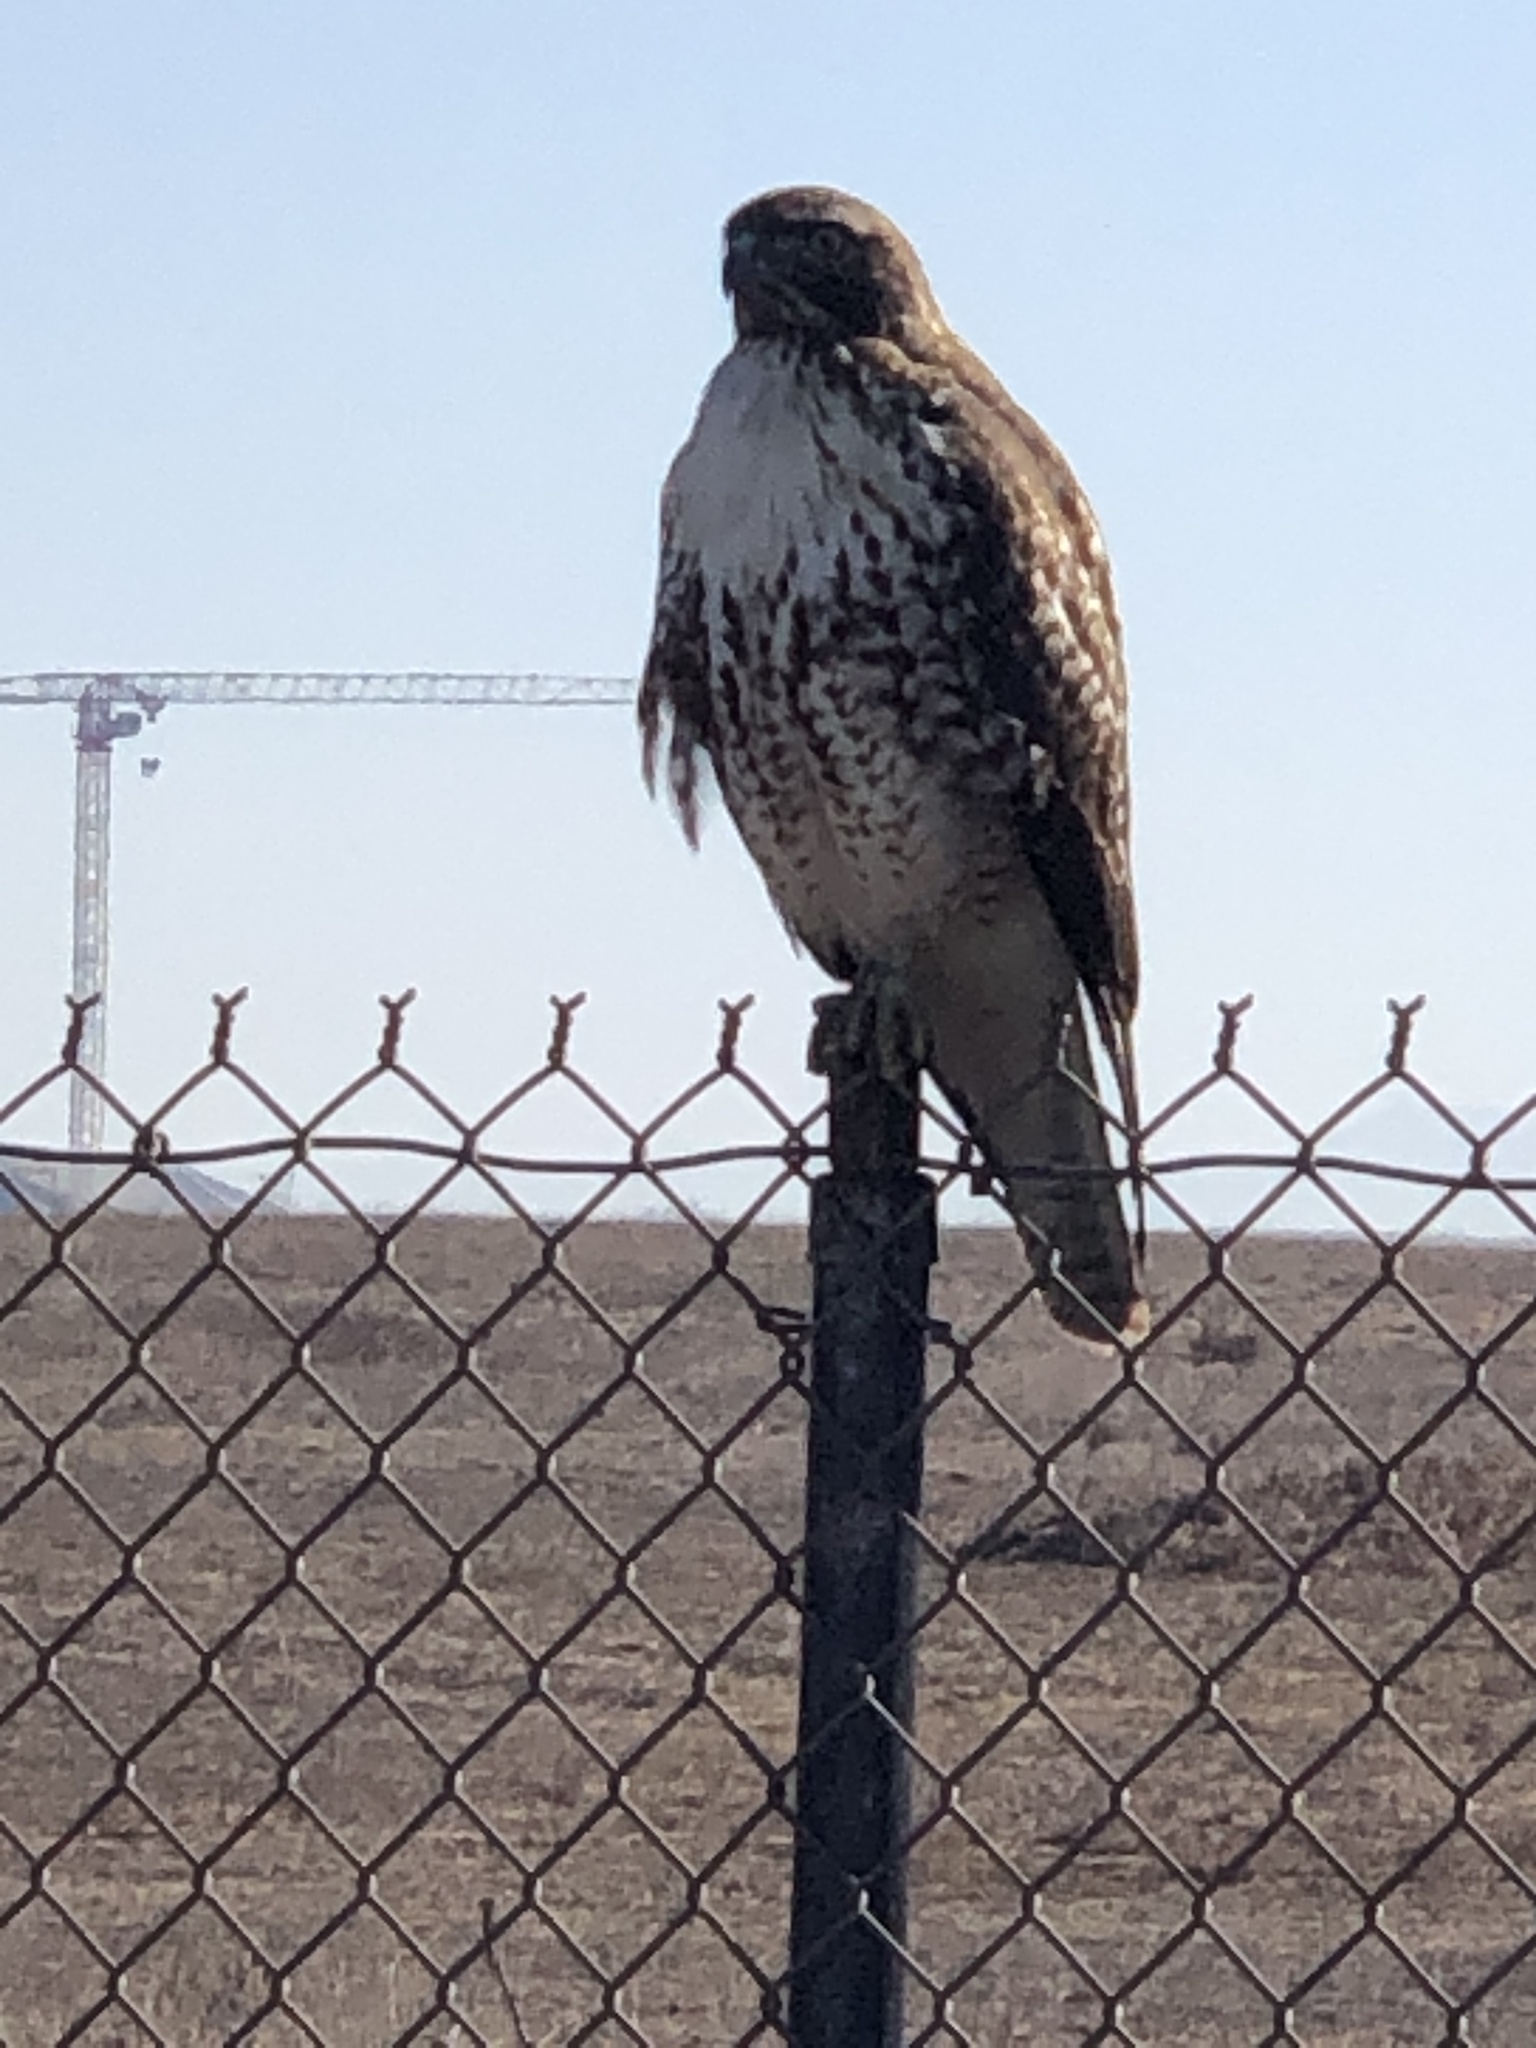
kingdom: Animalia
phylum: Chordata
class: Aves
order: Accipitriformes
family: Accipitridae
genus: Buteo
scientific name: Buteo jamaicensis
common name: Red-tailed hawk
